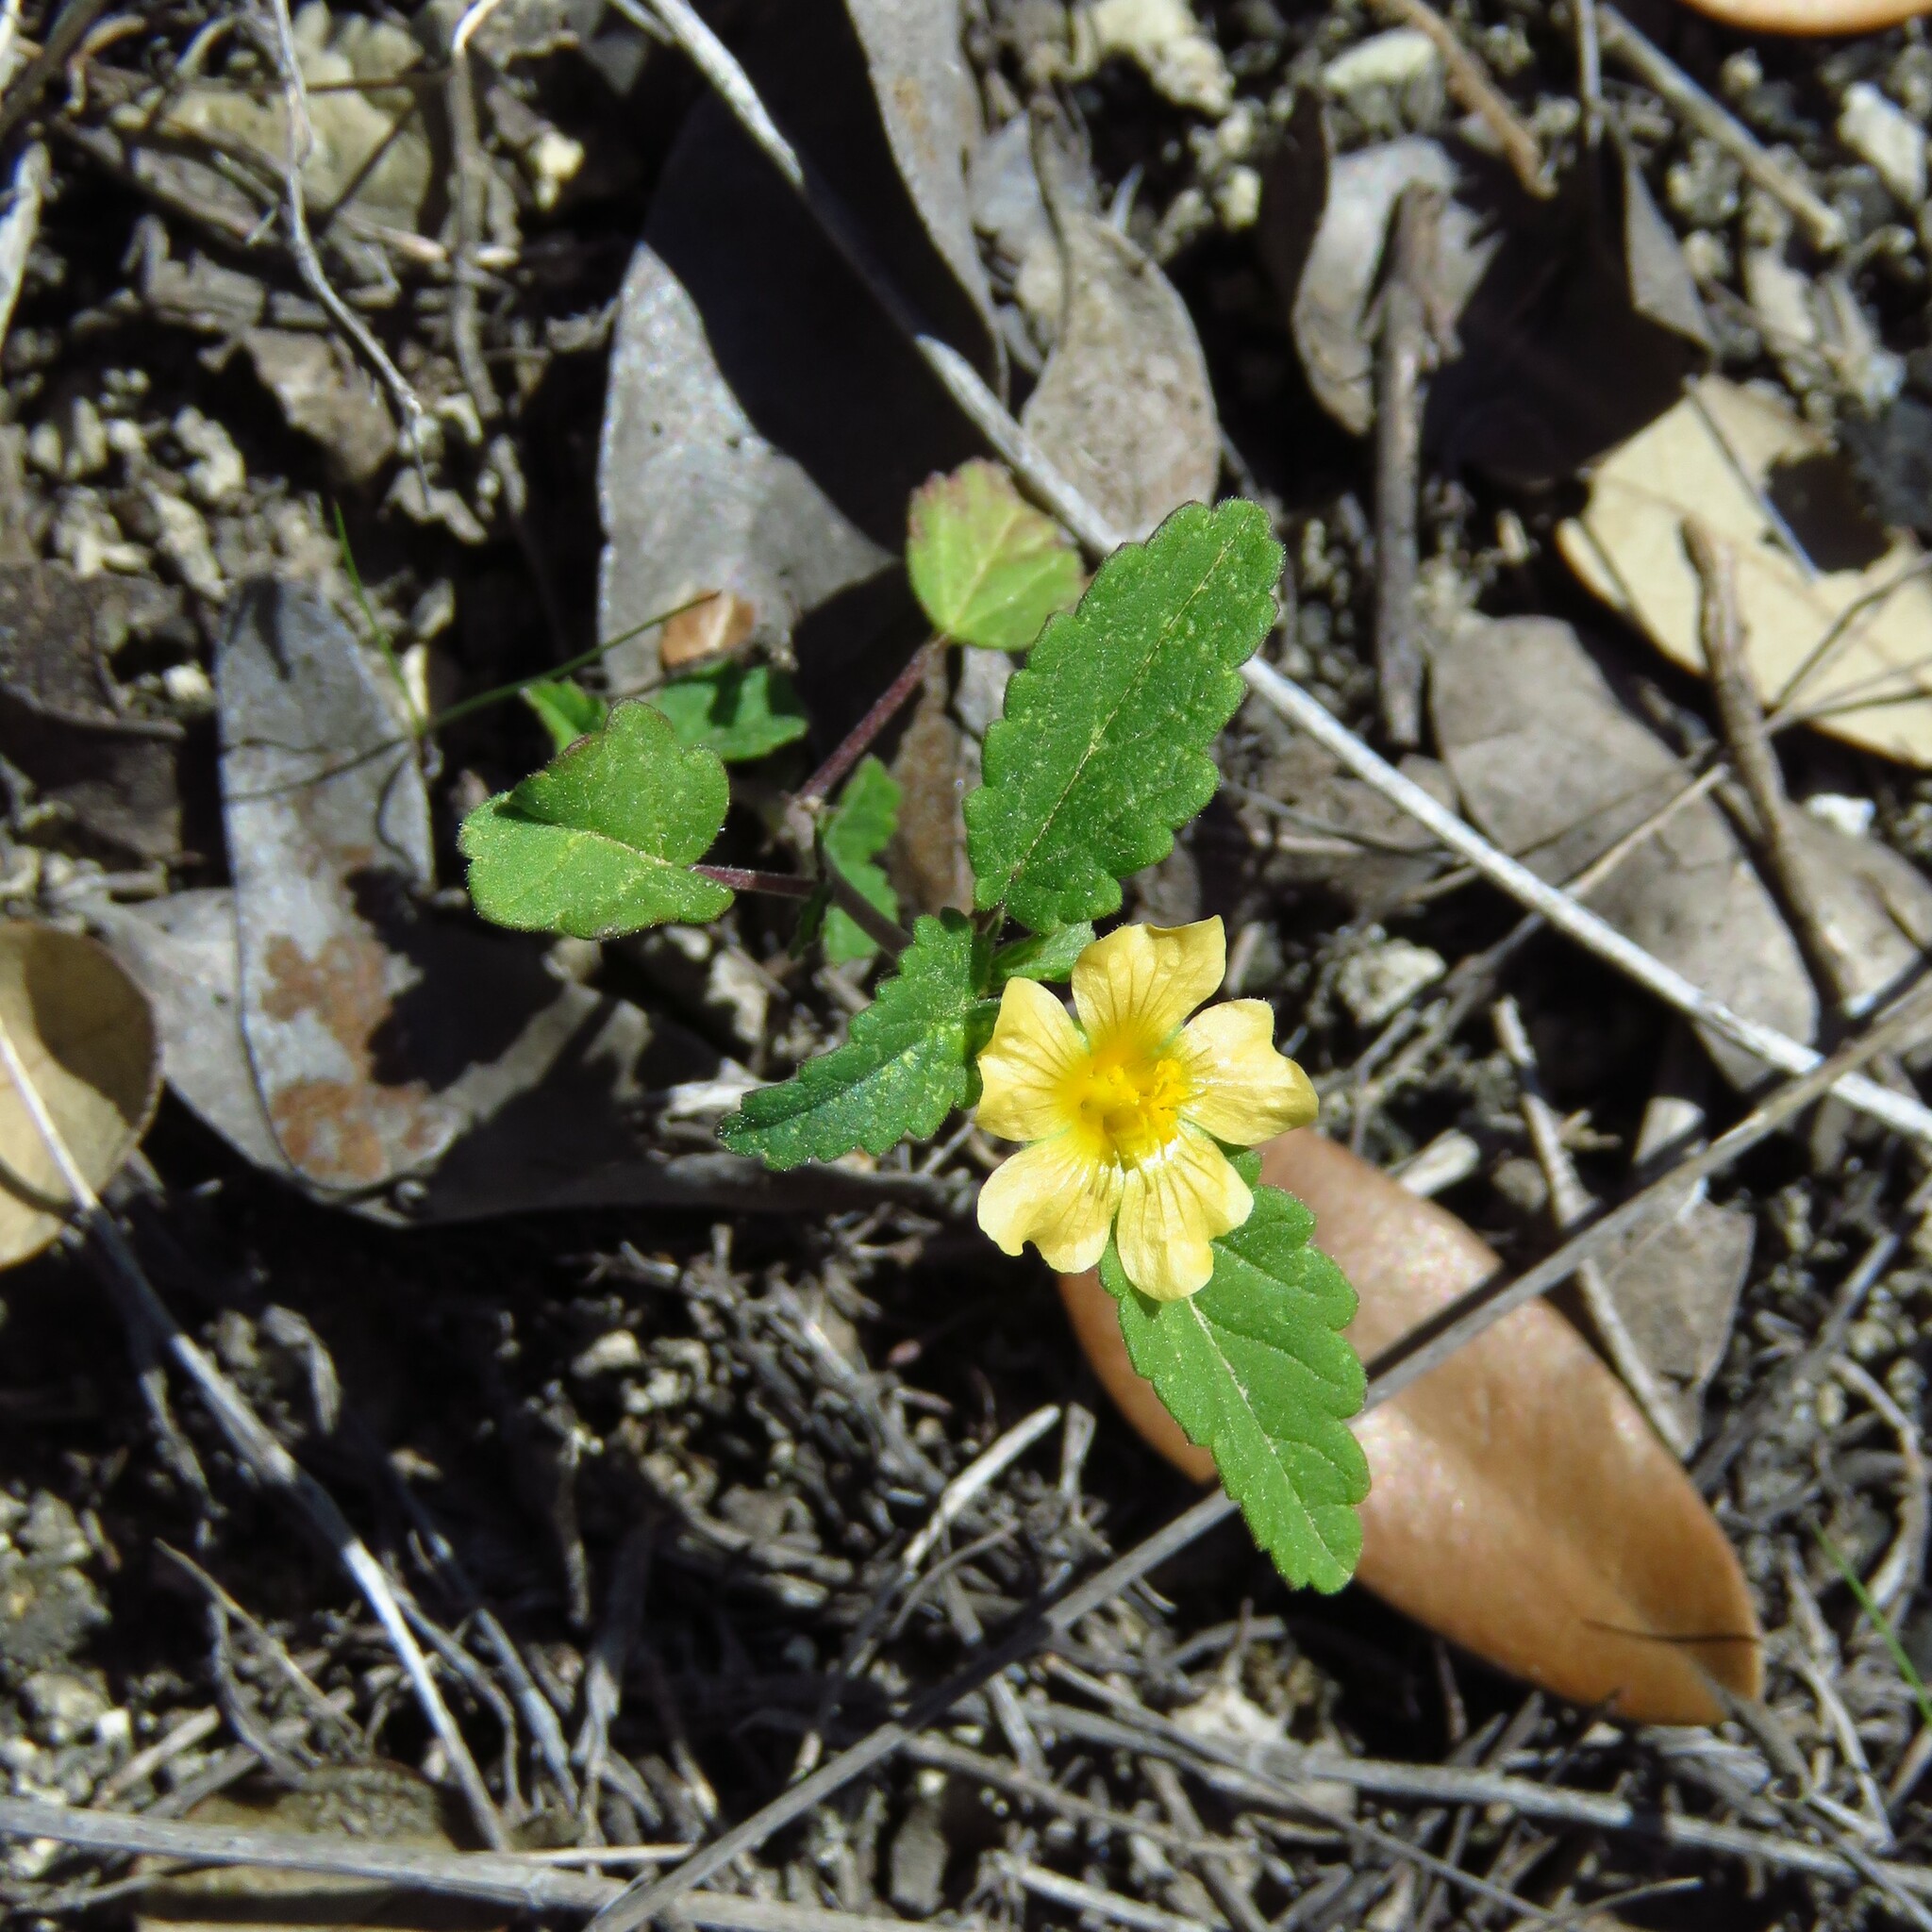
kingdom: Plantae
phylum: Tracheophyta
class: Magnoliopsida
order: Malvales
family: Malvaceae
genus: Sida
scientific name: Sida abutilifolia
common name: Spreading fanpetals
